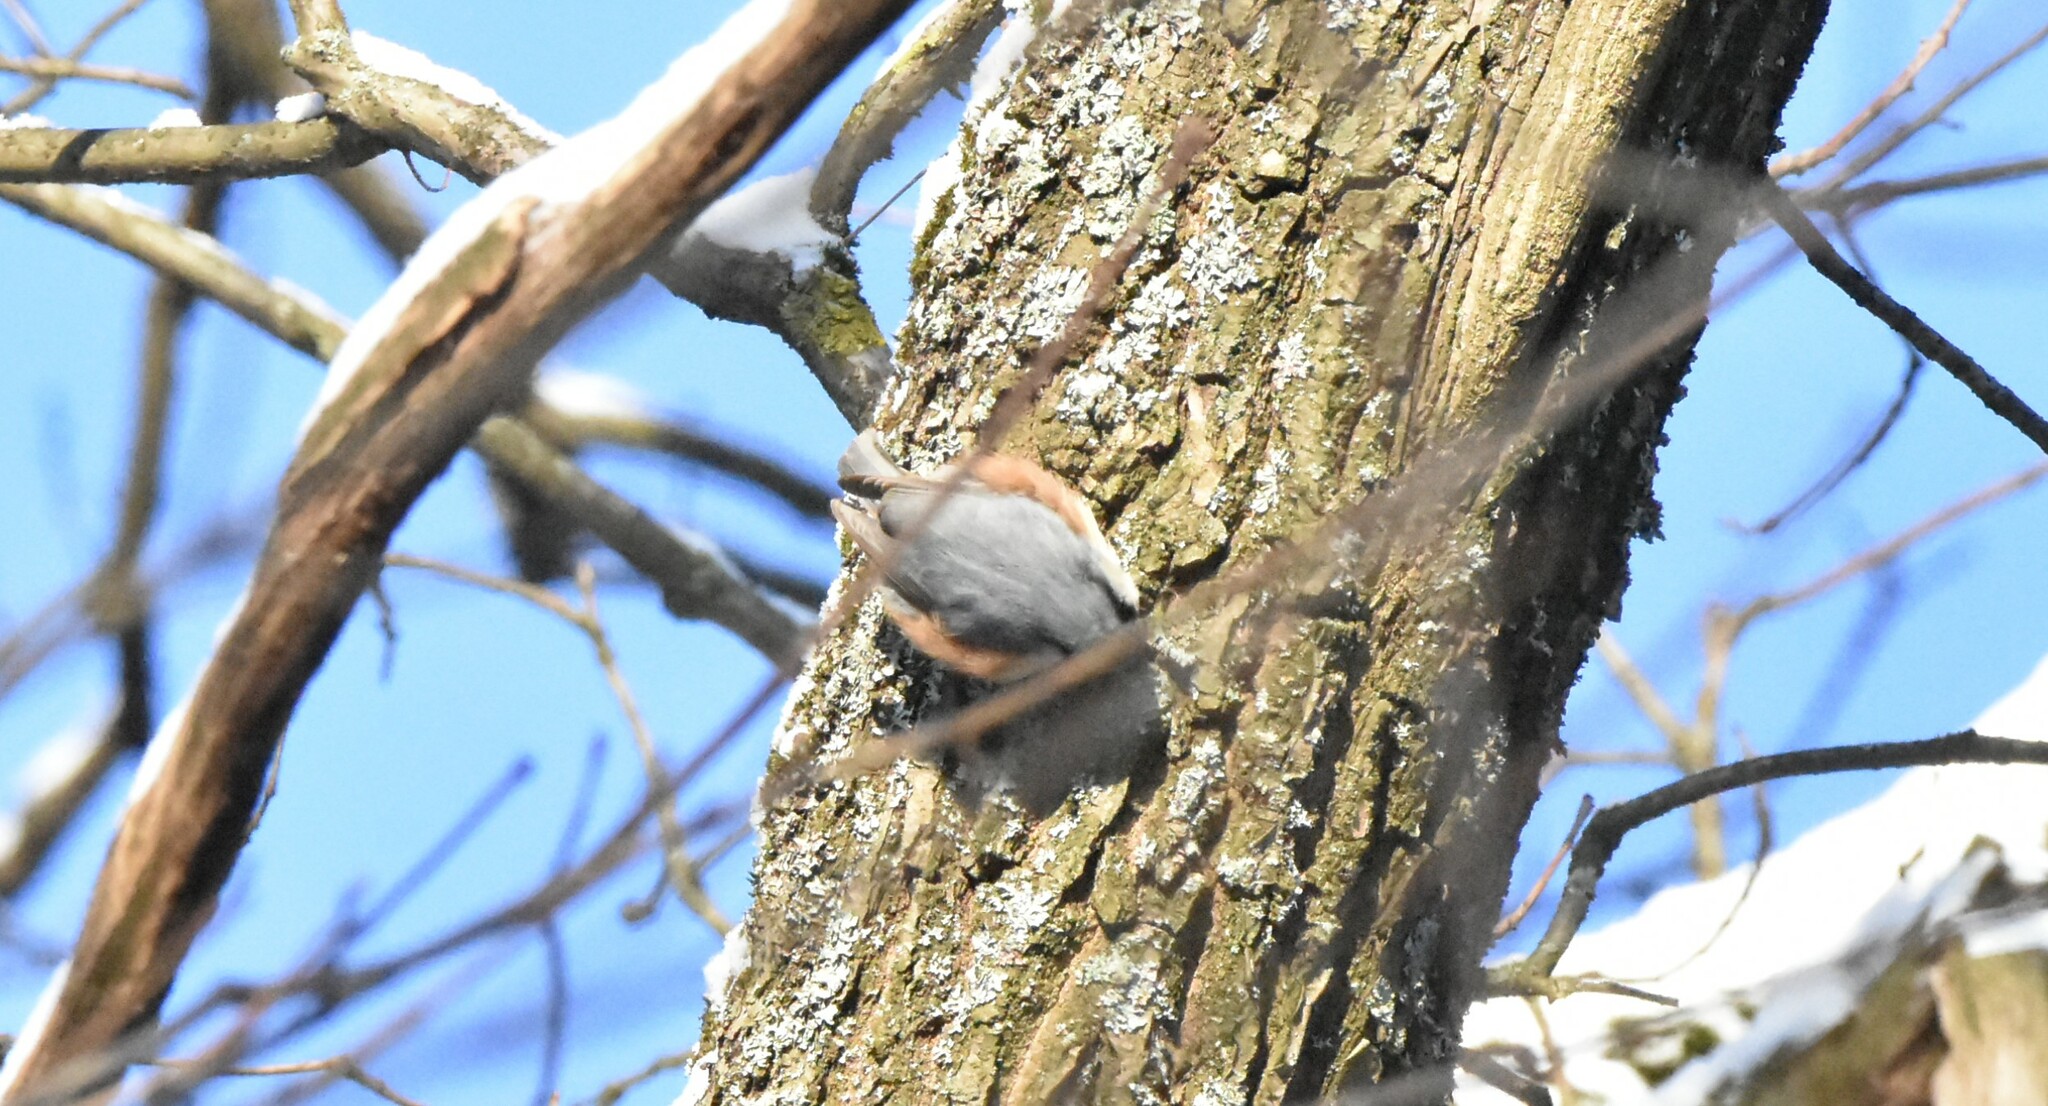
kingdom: Animalia
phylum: Chordata
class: Aves
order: Passeriformes
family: Sittidae
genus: Sitta
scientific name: Sitta europaea
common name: Eurasian nuthatch
